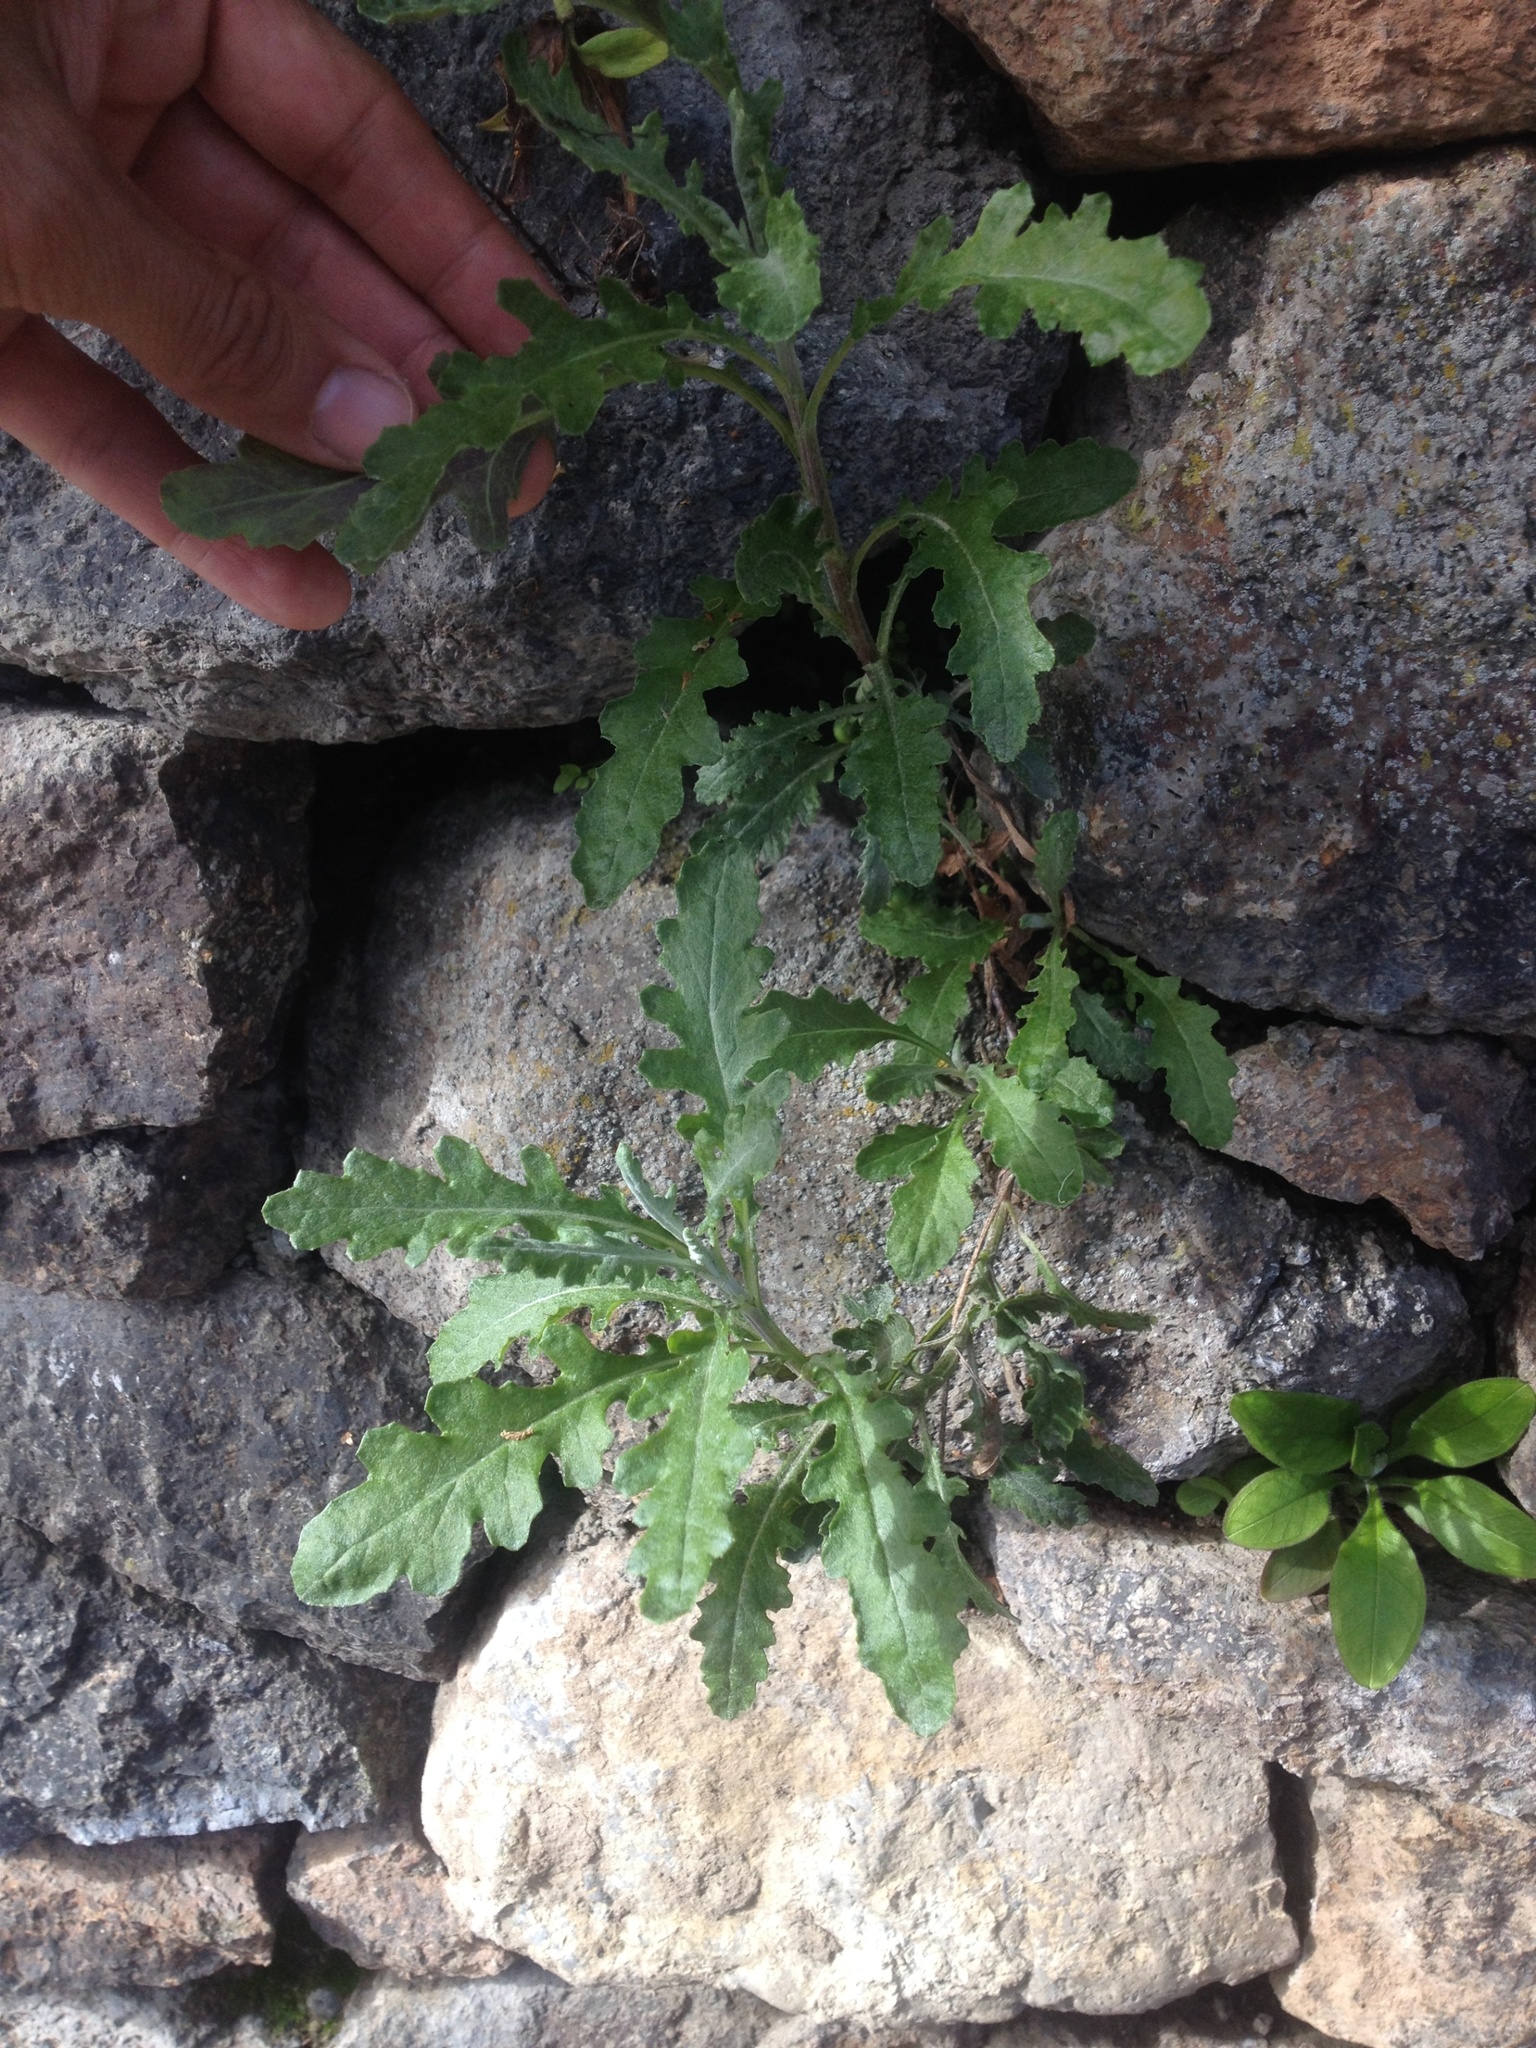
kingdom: Plantae
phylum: Tracheophyta
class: Magnoliopsida
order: Asterales
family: Asteraceae
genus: Senecio
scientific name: Senecio glomeratus
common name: Cutleaf burnweed
